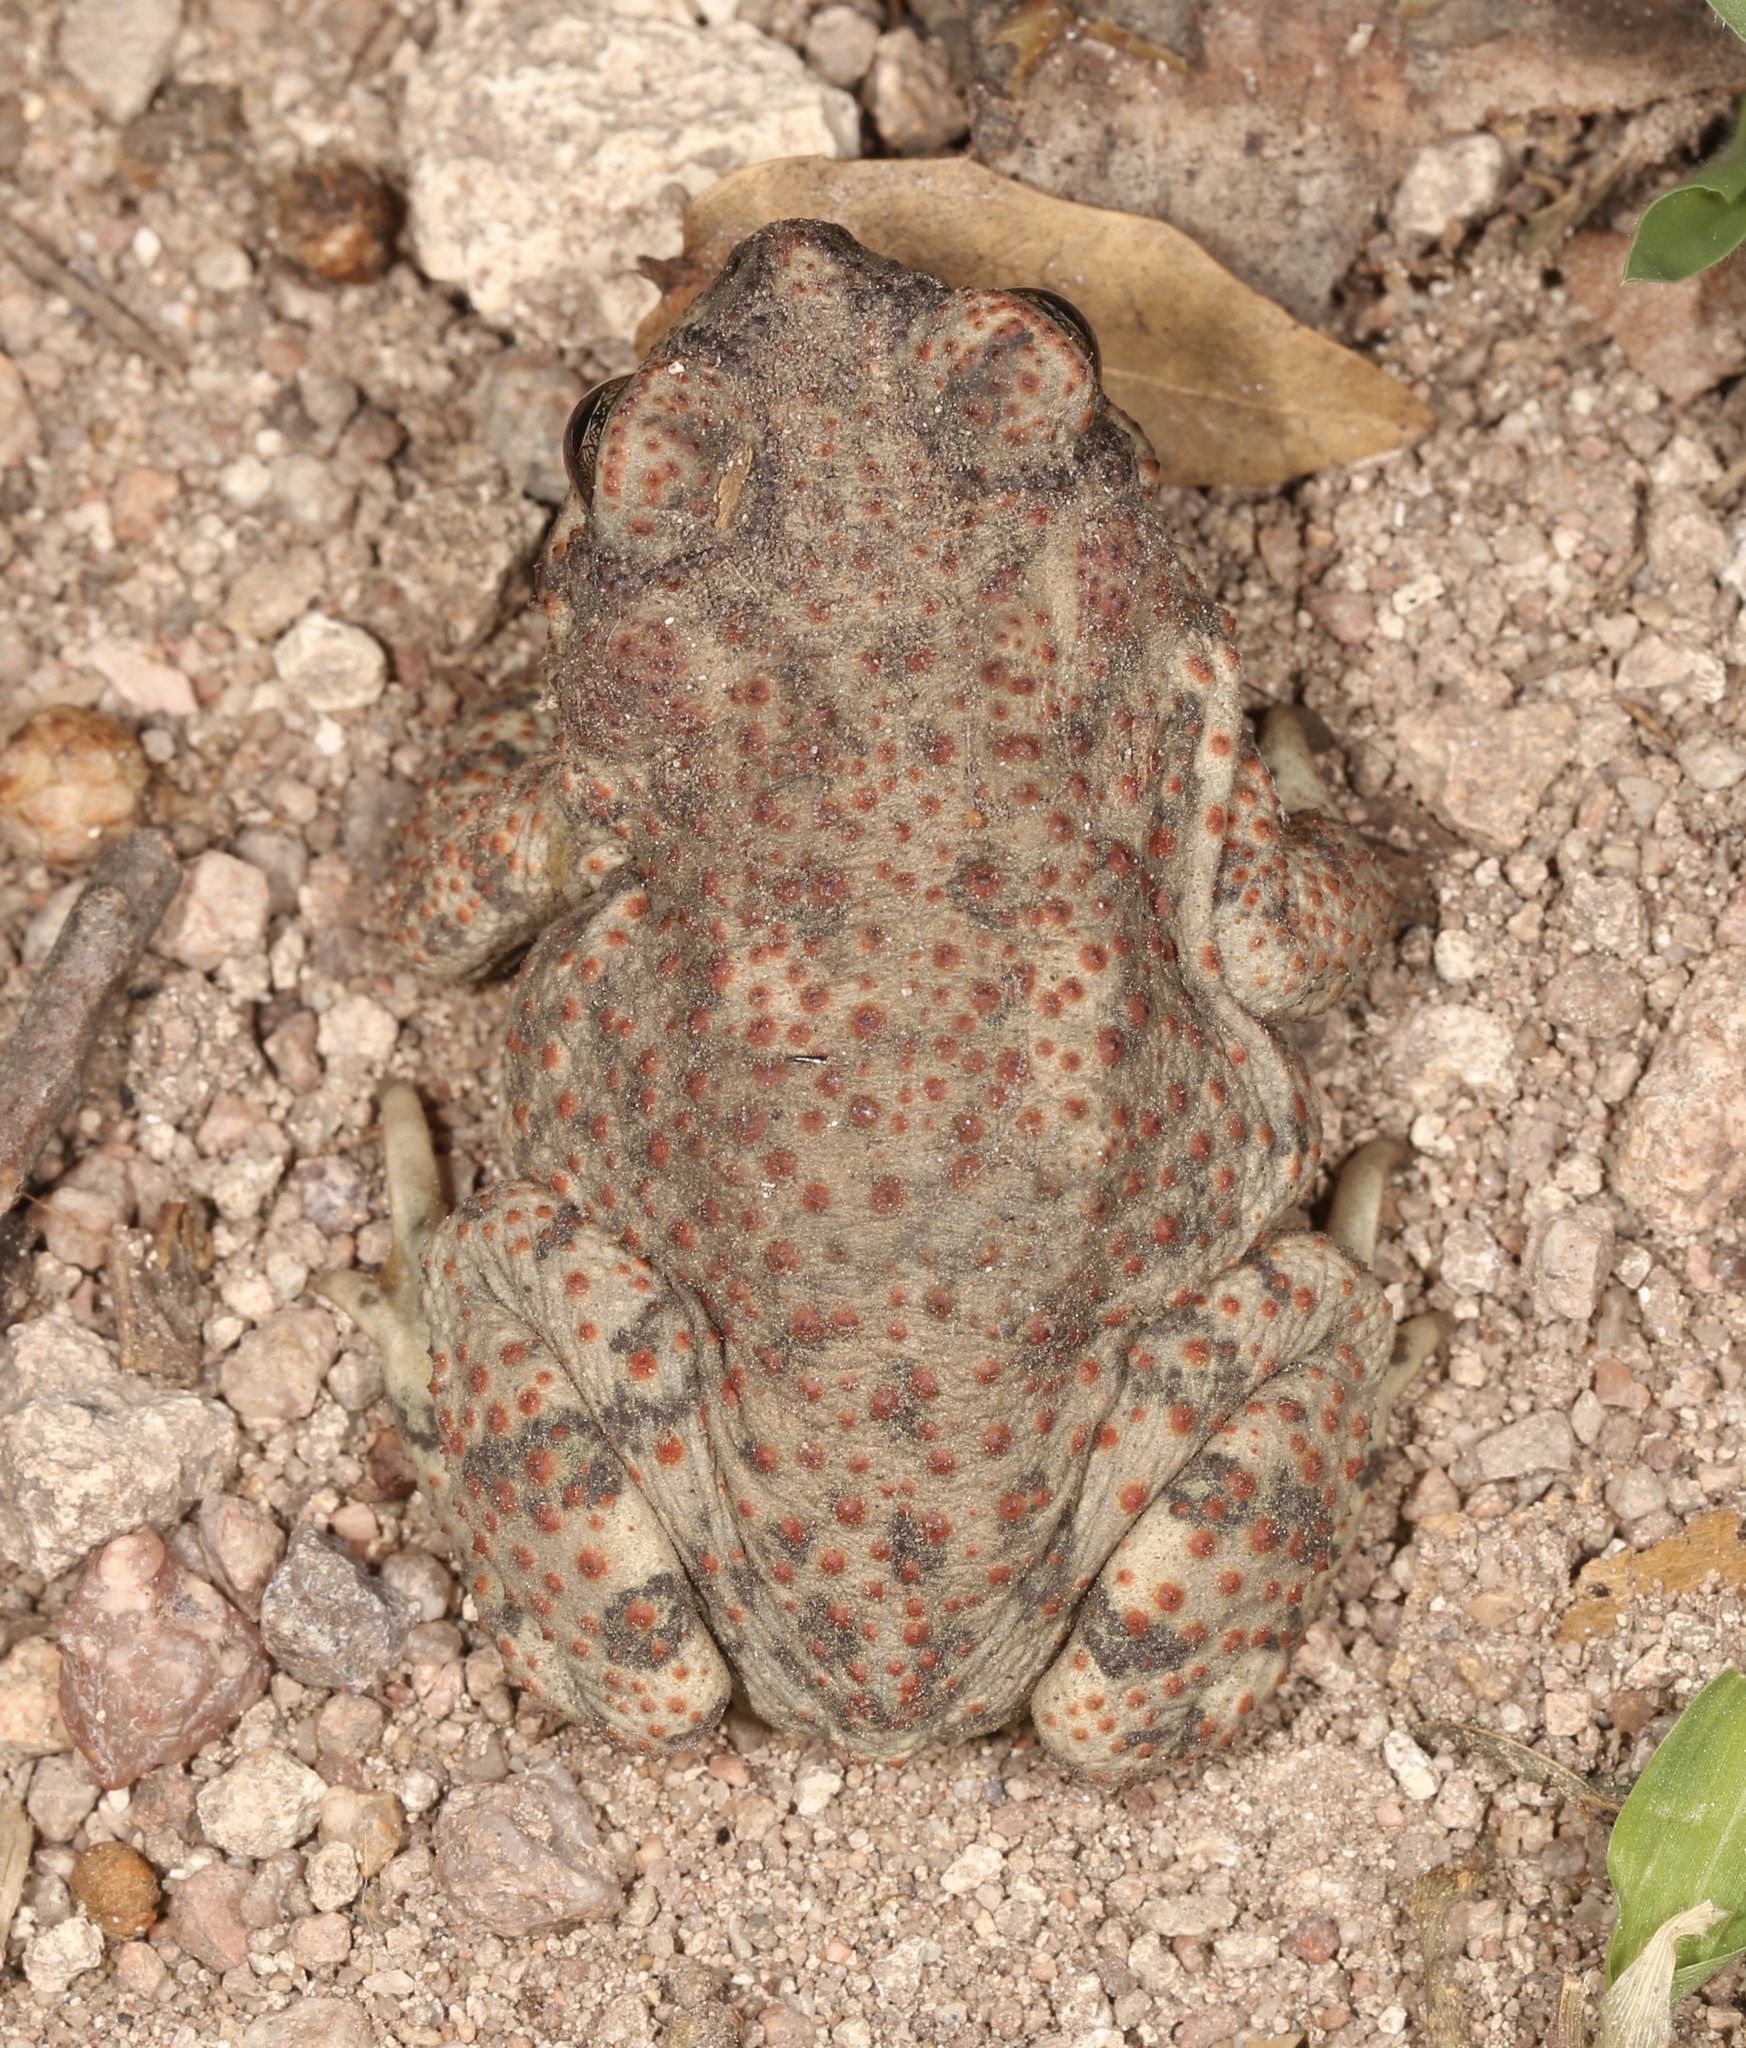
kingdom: Animalia
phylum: Chordata
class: Amphibia
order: Anura
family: Bufonidae
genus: Anaxyrus
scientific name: Anaxyrus punctatus
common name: Red-spotted toad
